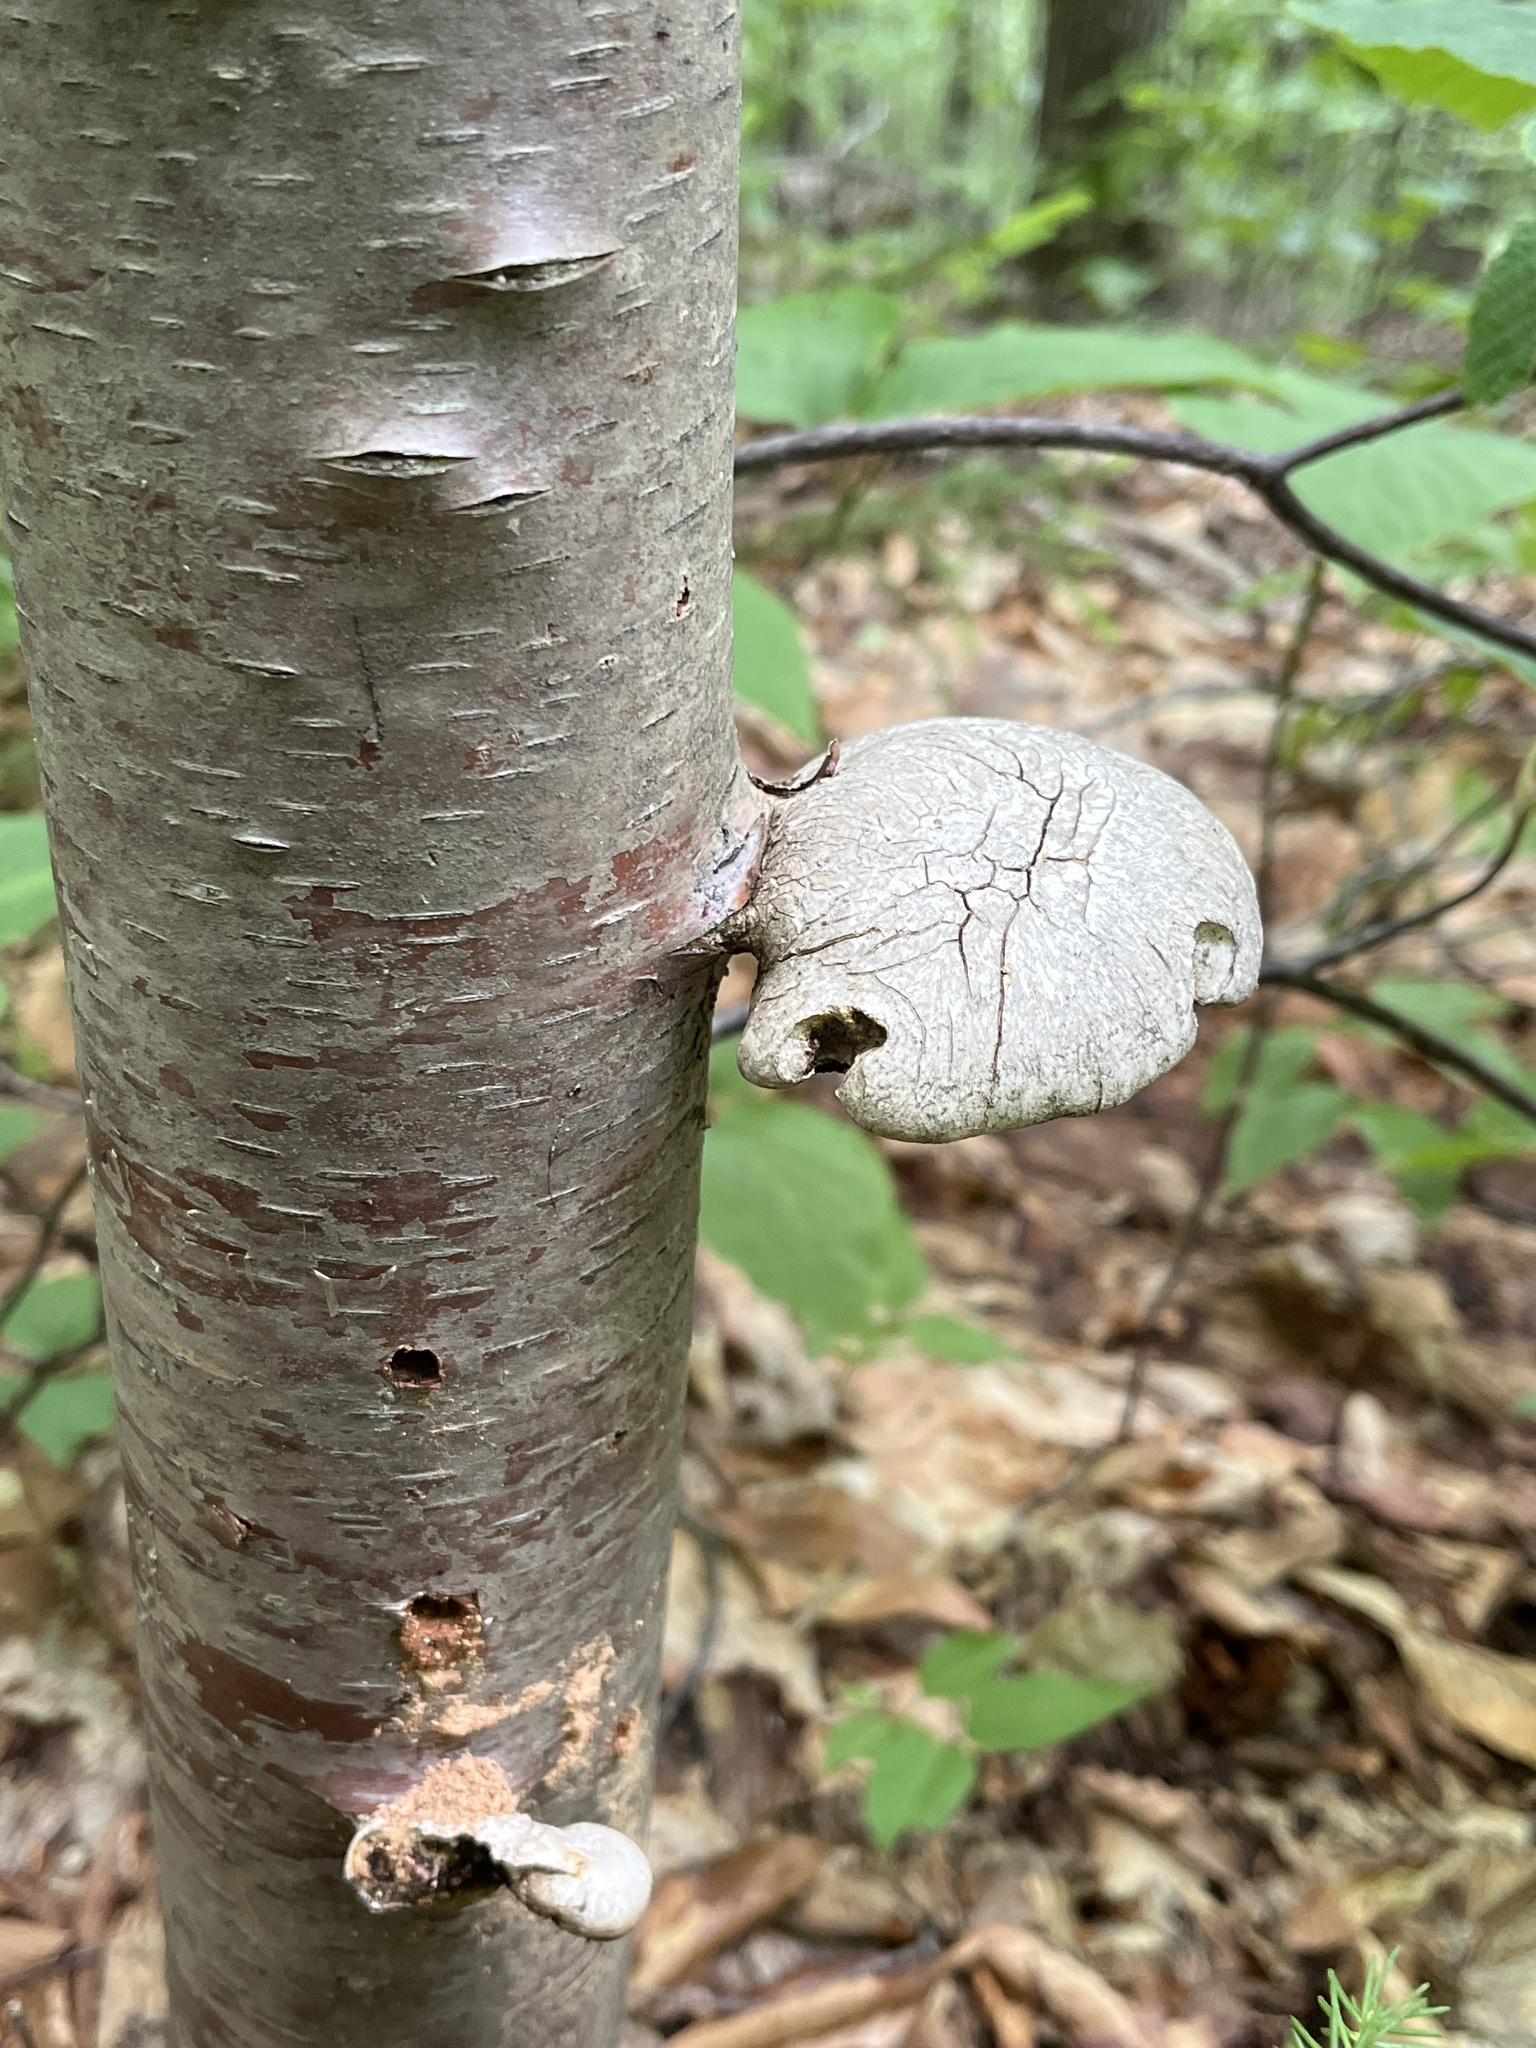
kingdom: Fungi
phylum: Basidiomycota
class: Agaricomycetes
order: Polyporales
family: Fomitopsidaceae
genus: Fomitopsis
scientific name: Fomitopsis betulina
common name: Birch polypore
